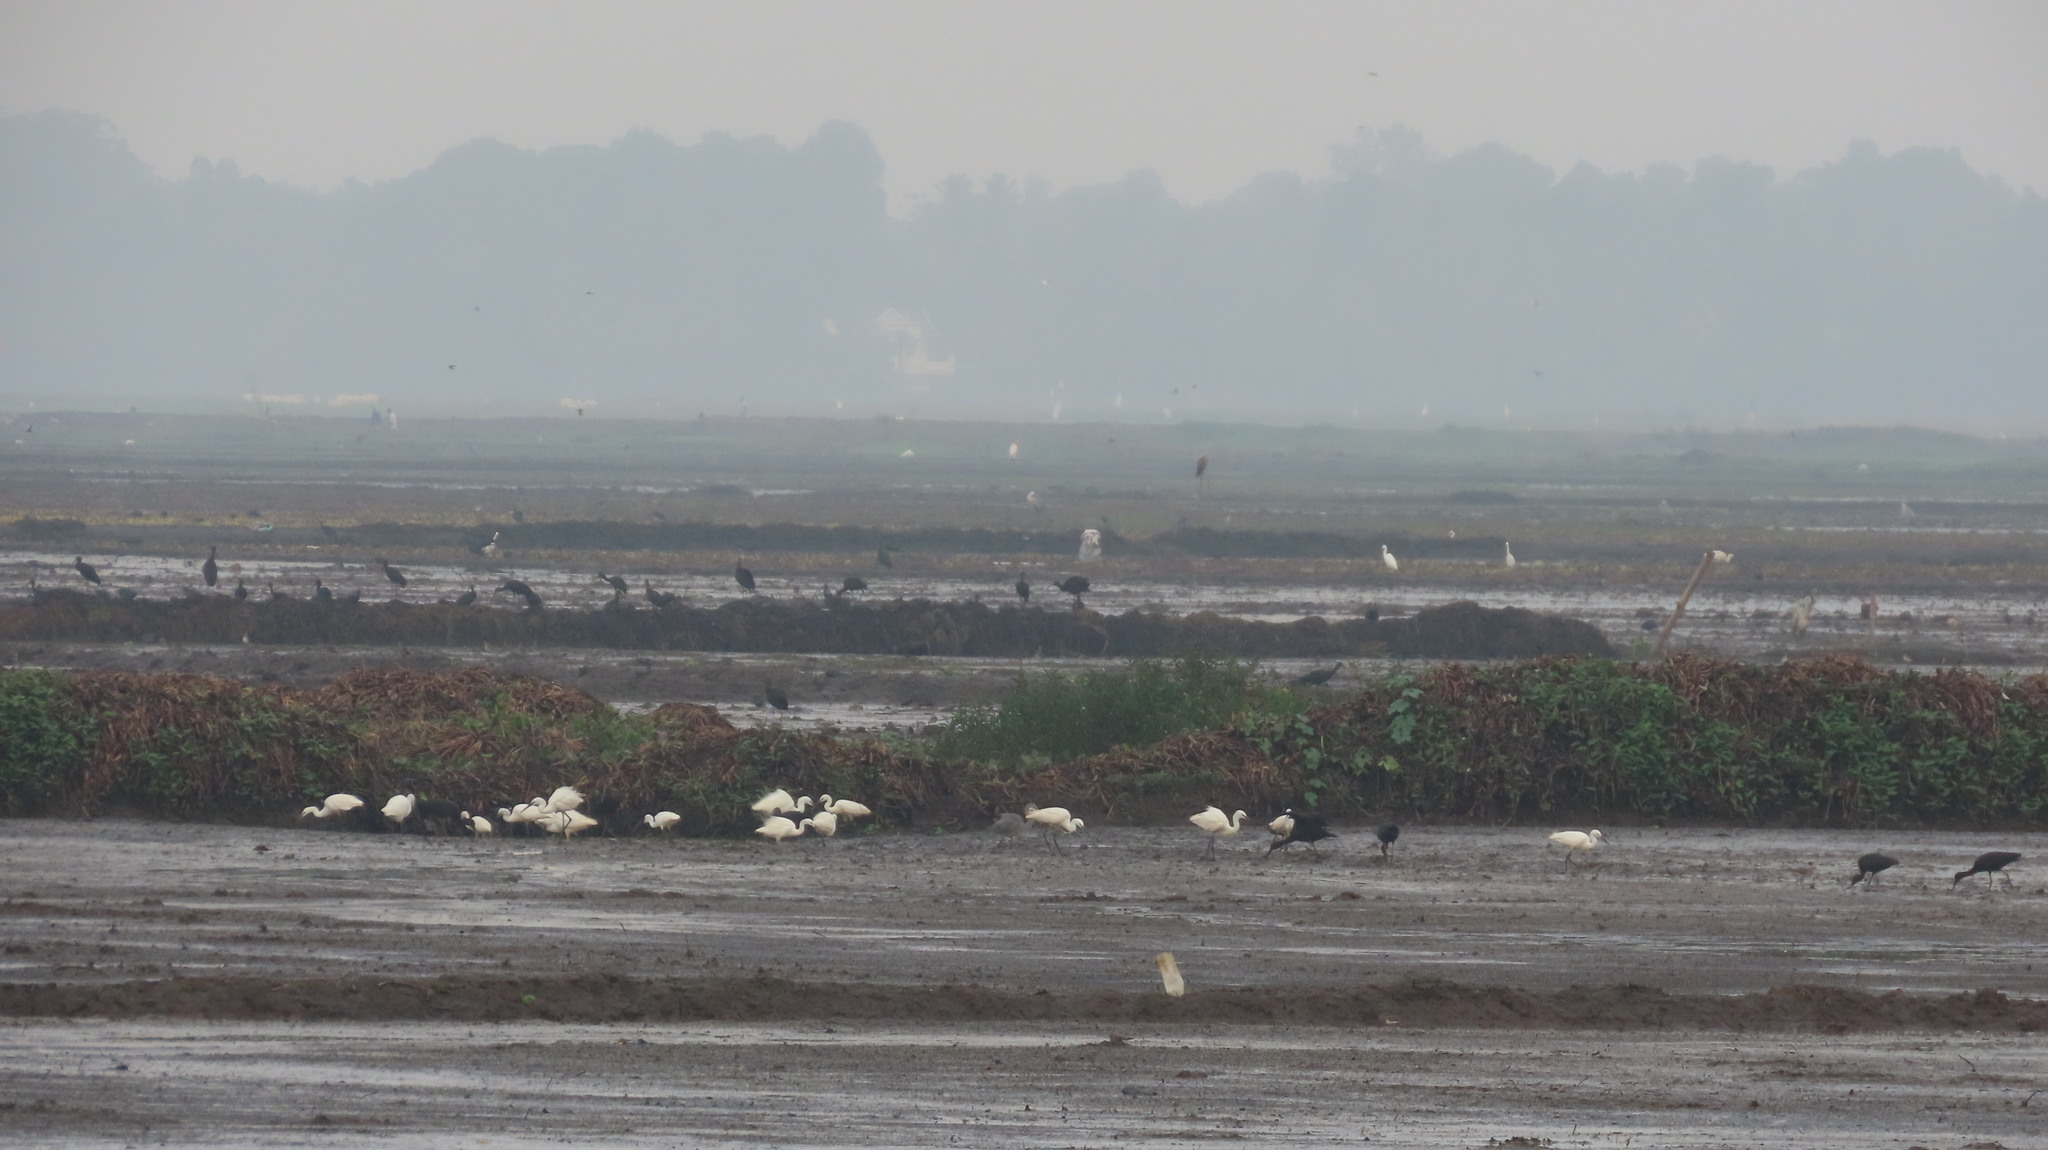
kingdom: Animalia
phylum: Chordata
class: Aves
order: Pelecaniformes
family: Threskiornithidae
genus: Plegadis
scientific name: Plegadis falcinellus
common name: Glossy ibis
